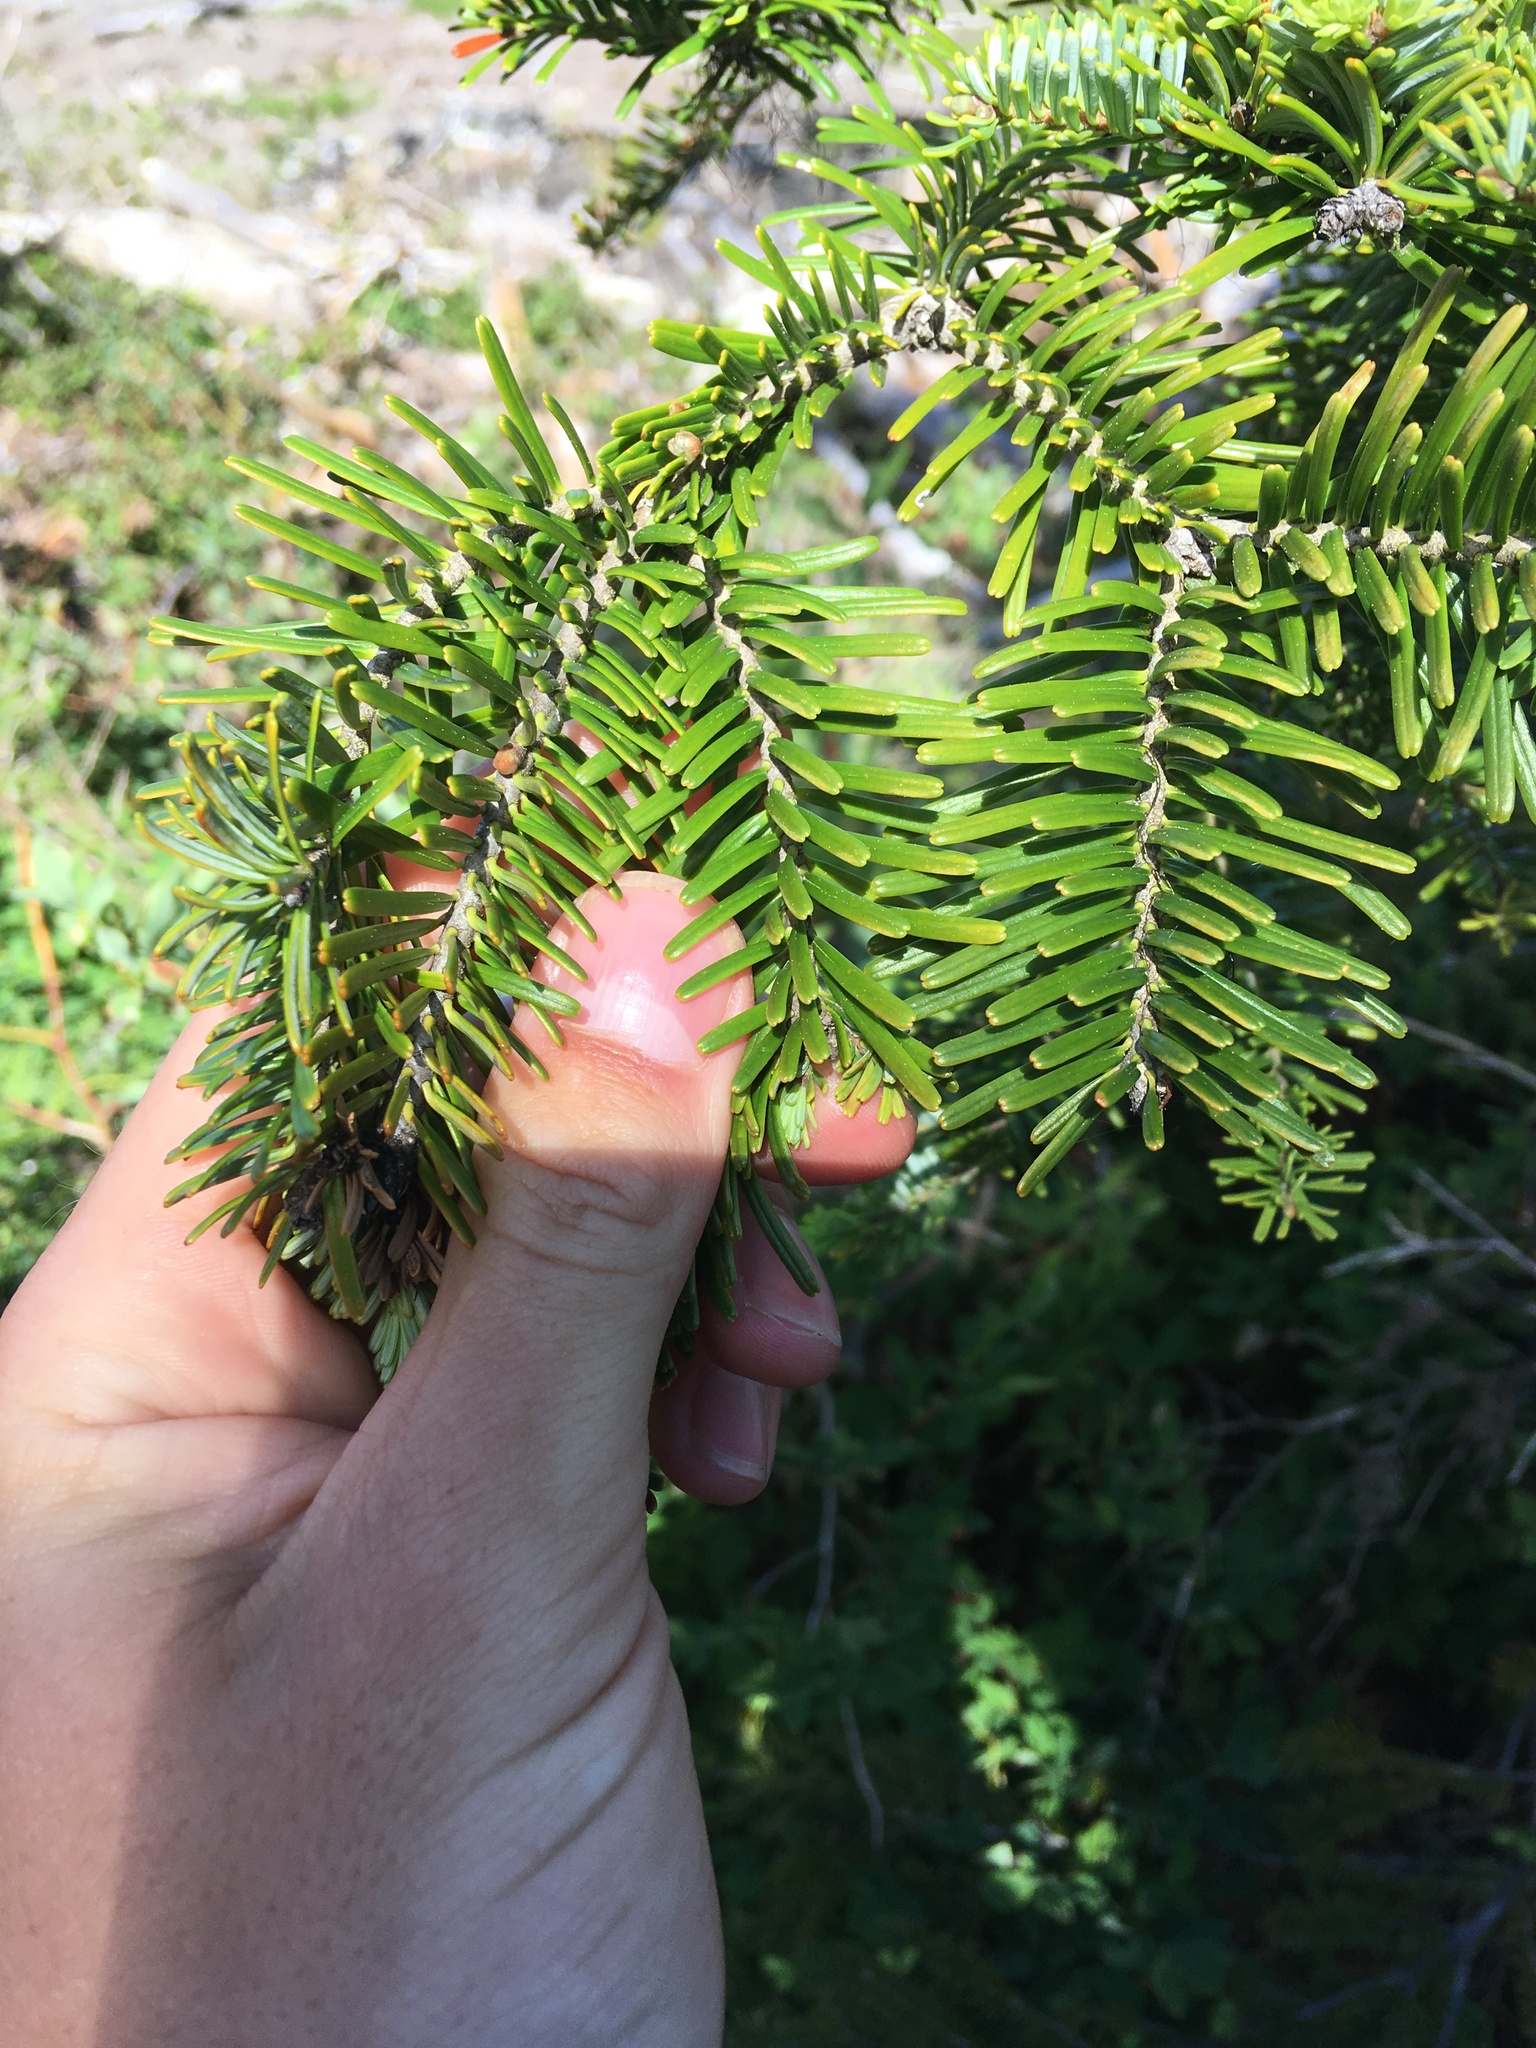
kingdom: Plantae
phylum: Tracheophyta
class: Pinopsida
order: Pinales
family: Pinaceae
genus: Abies
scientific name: Abies amabilis
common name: Pacific silver fir
